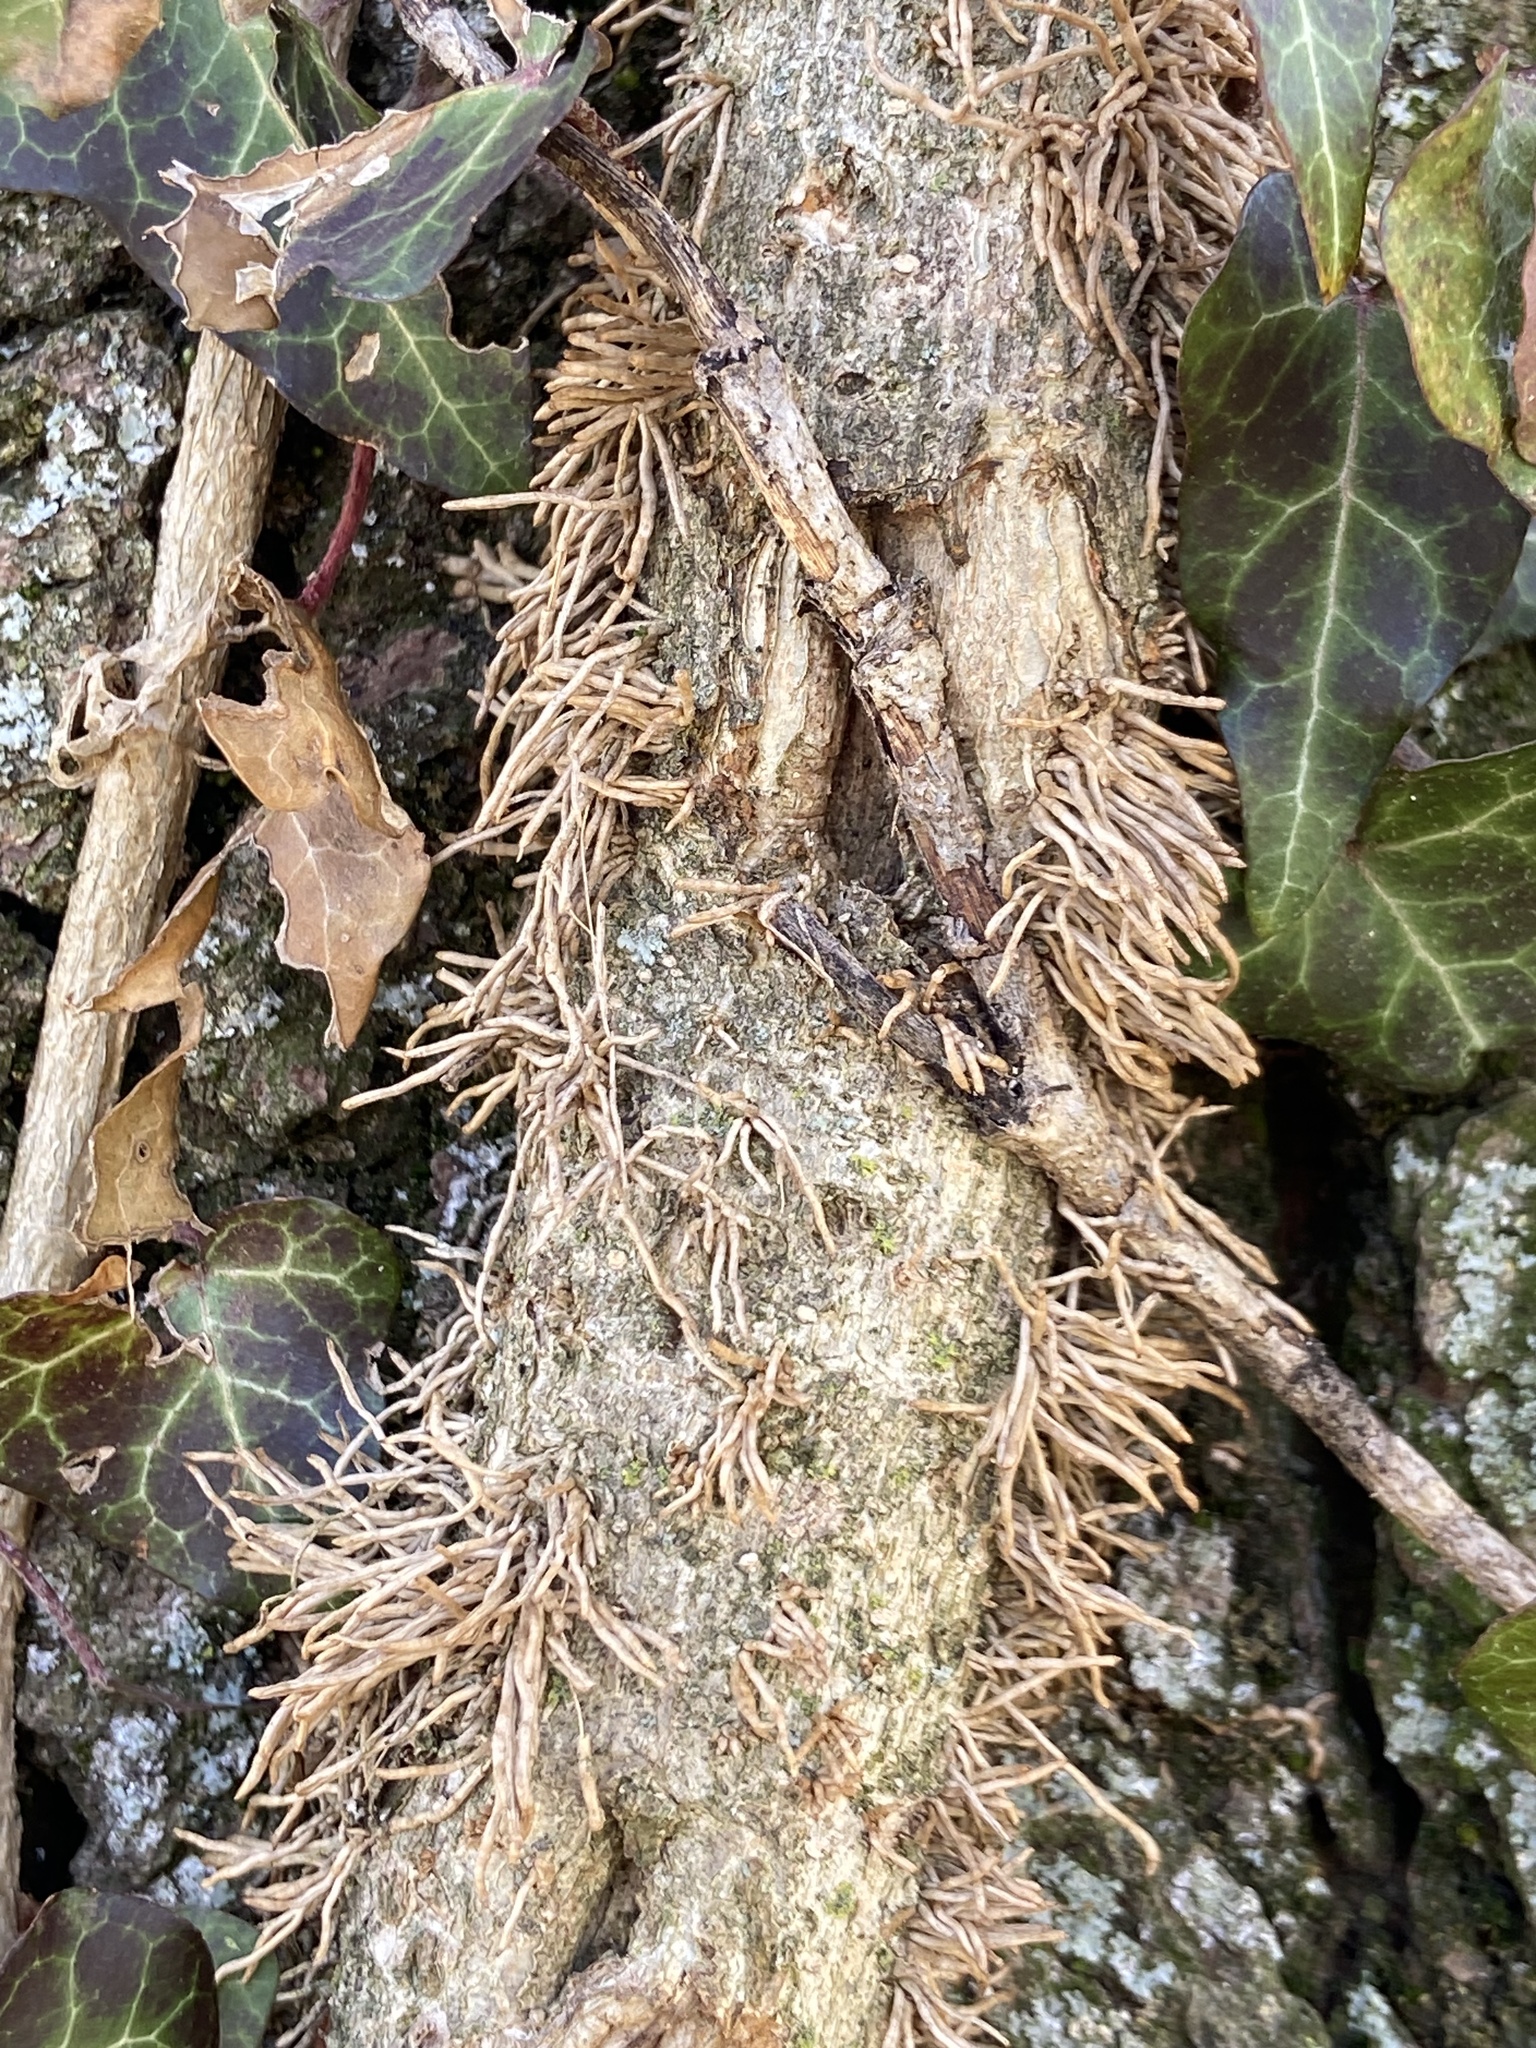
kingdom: Plantae
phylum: Tracheophyta
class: Magnoliopsida
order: Apiales
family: Araliaceae
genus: Hedera
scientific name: Hedera helix
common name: Ivy
